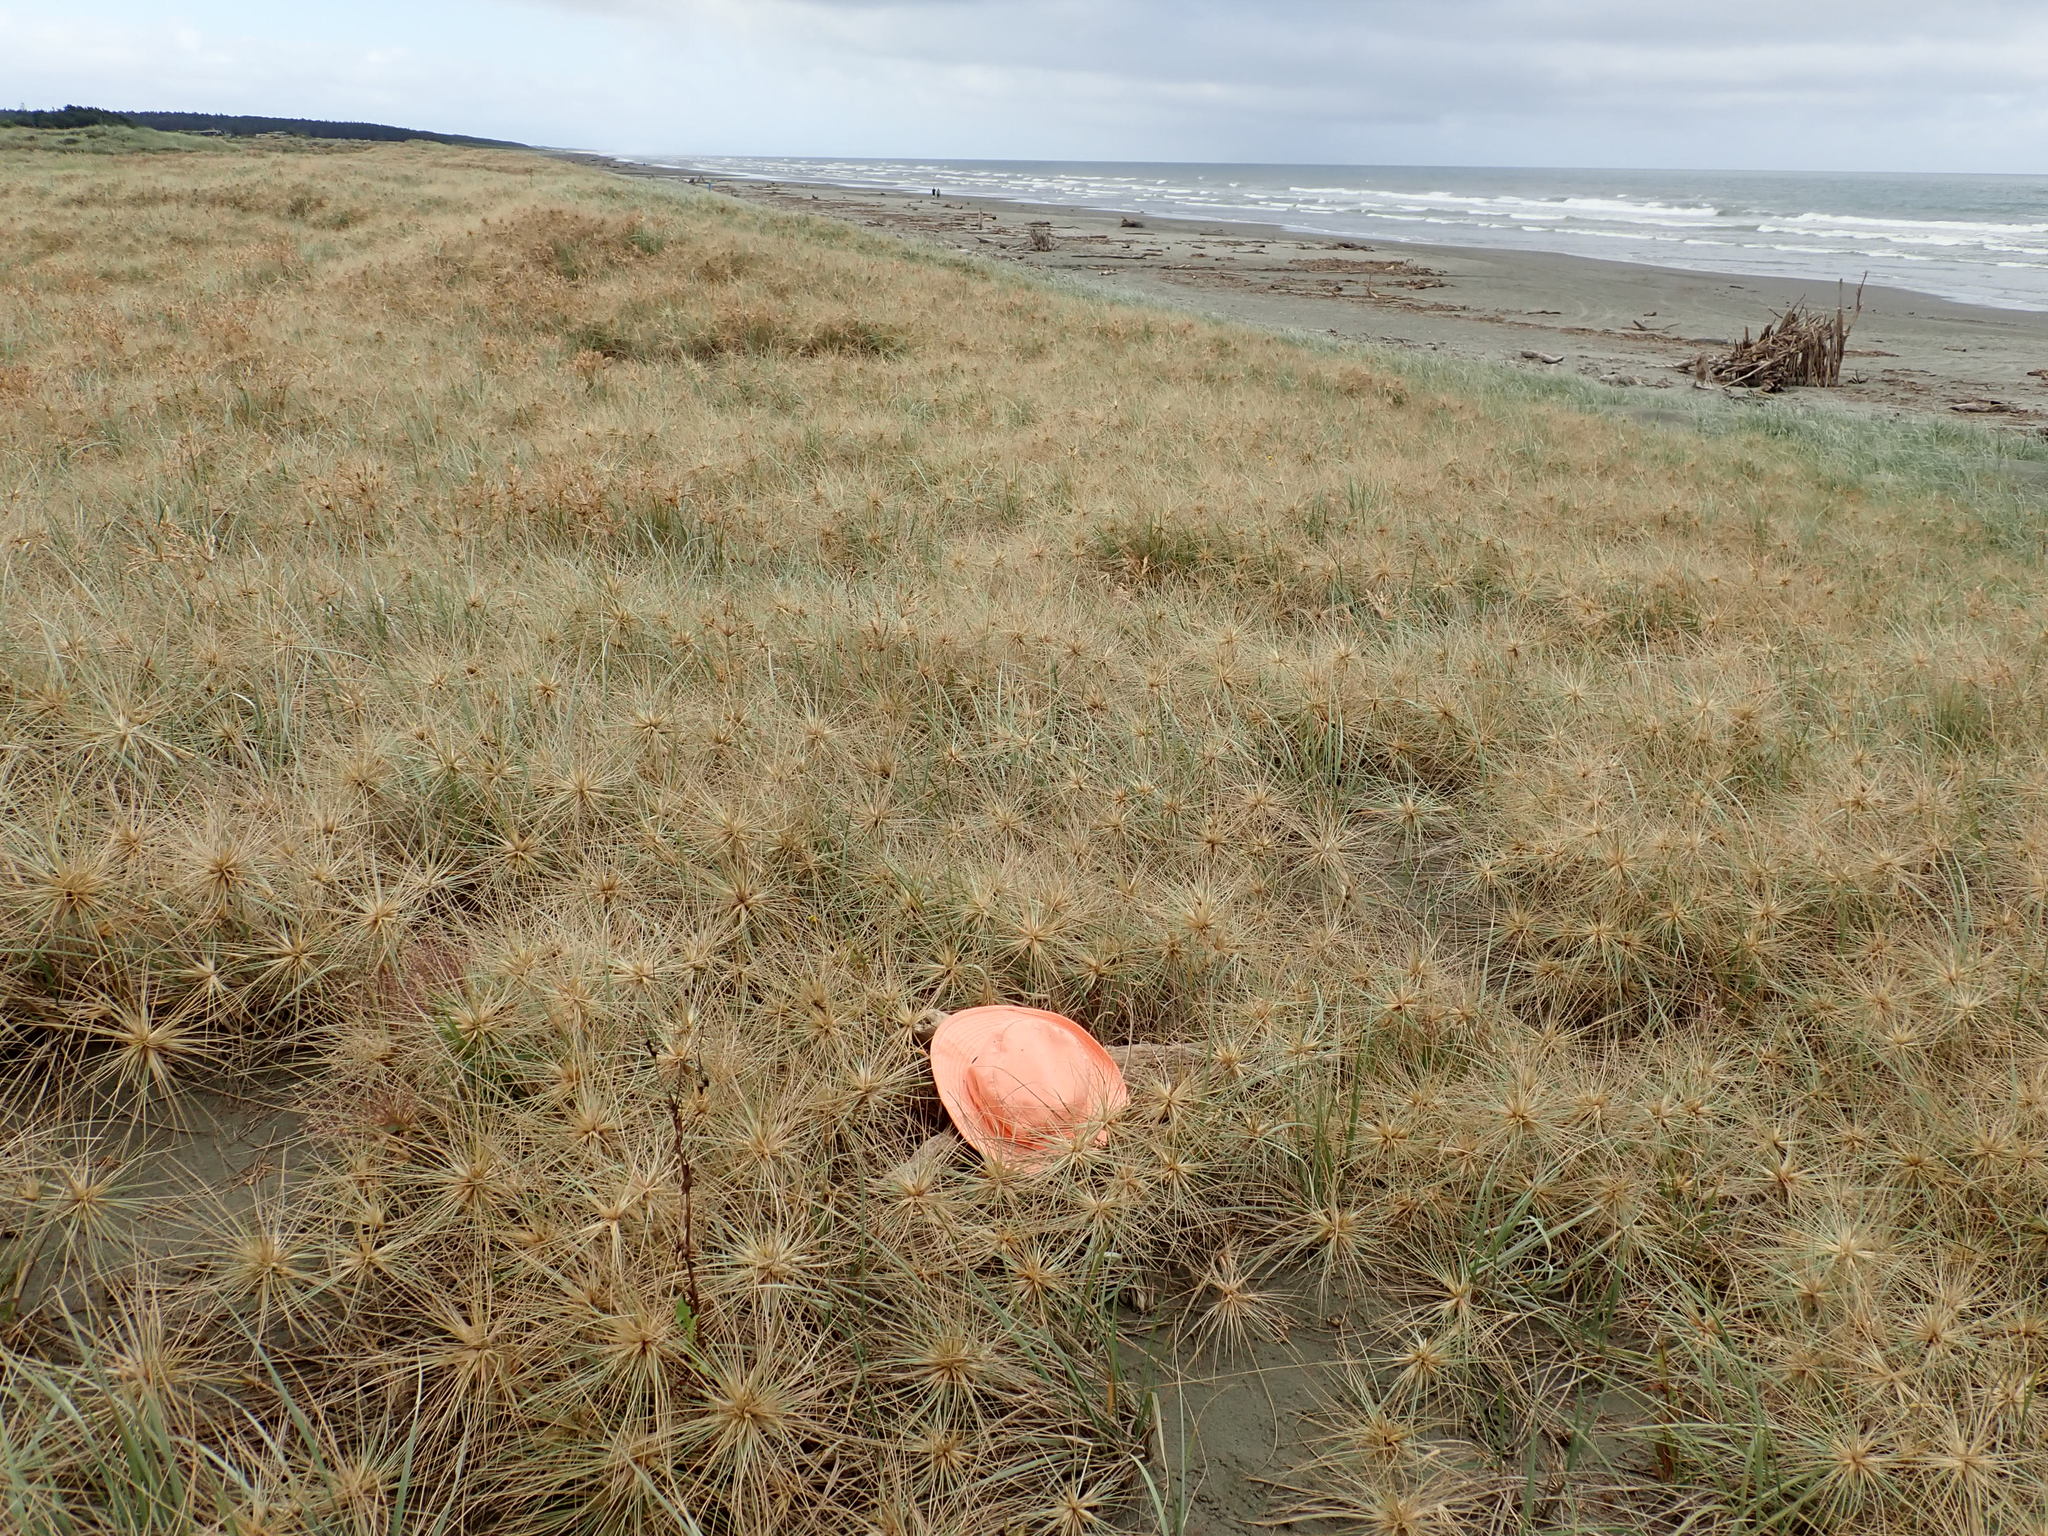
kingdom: Animalia
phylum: Arthropoda
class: Arachnida
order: Araneae
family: Theridiidae
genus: Steatoda
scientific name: Steatoda capensis
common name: Cobweb weaver
